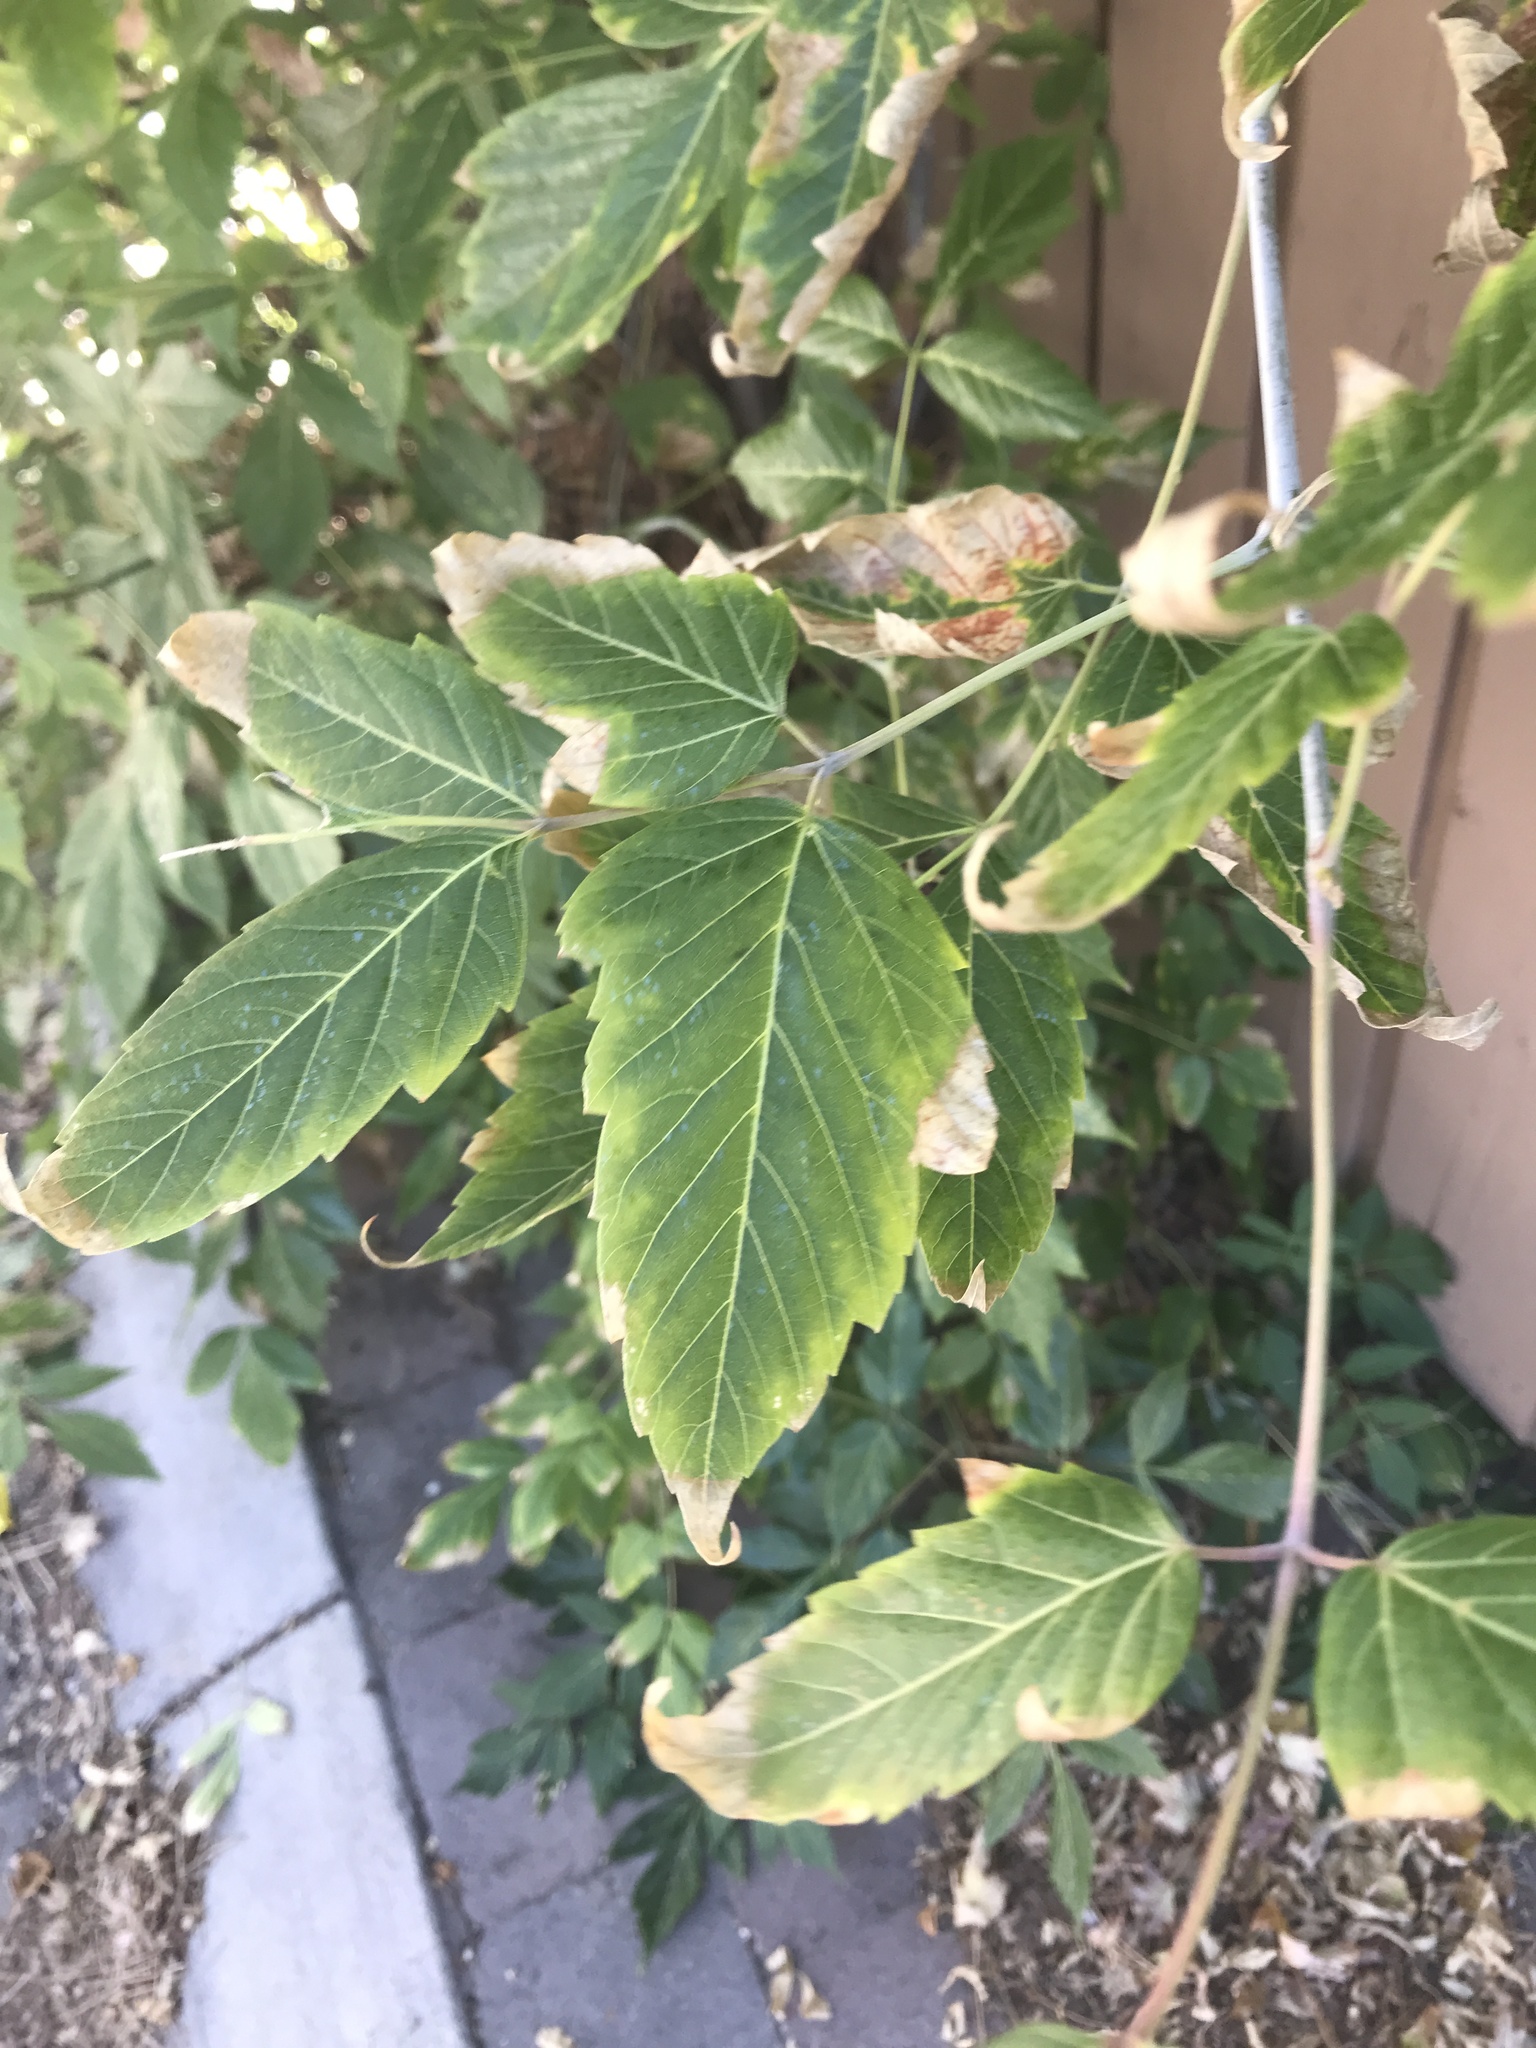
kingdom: Plantae
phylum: Tracheophyta
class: Magnoliopsida
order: Sapindales
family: Sapindaceae
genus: Acer
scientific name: Acer negundo
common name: Ashleaf maple
